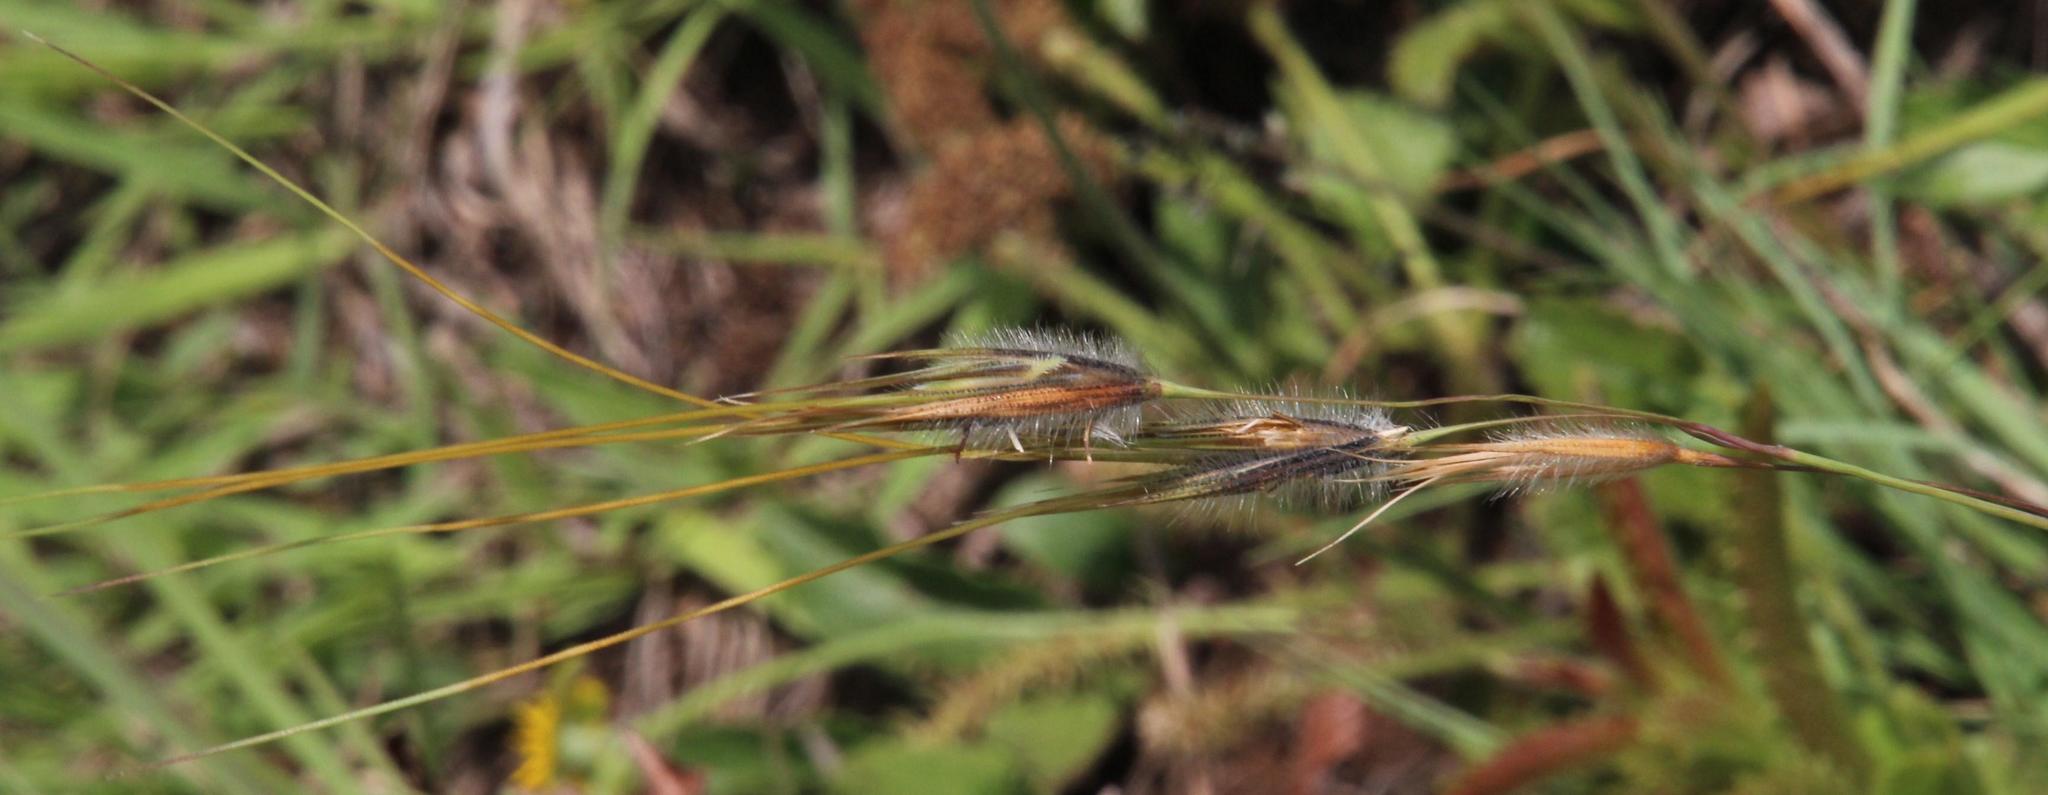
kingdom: Plantae
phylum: Tracheophyta
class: Liliopsida
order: Poales
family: Poaceae
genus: Tristachya
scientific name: Tristachya leucothrix
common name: Trident grass
